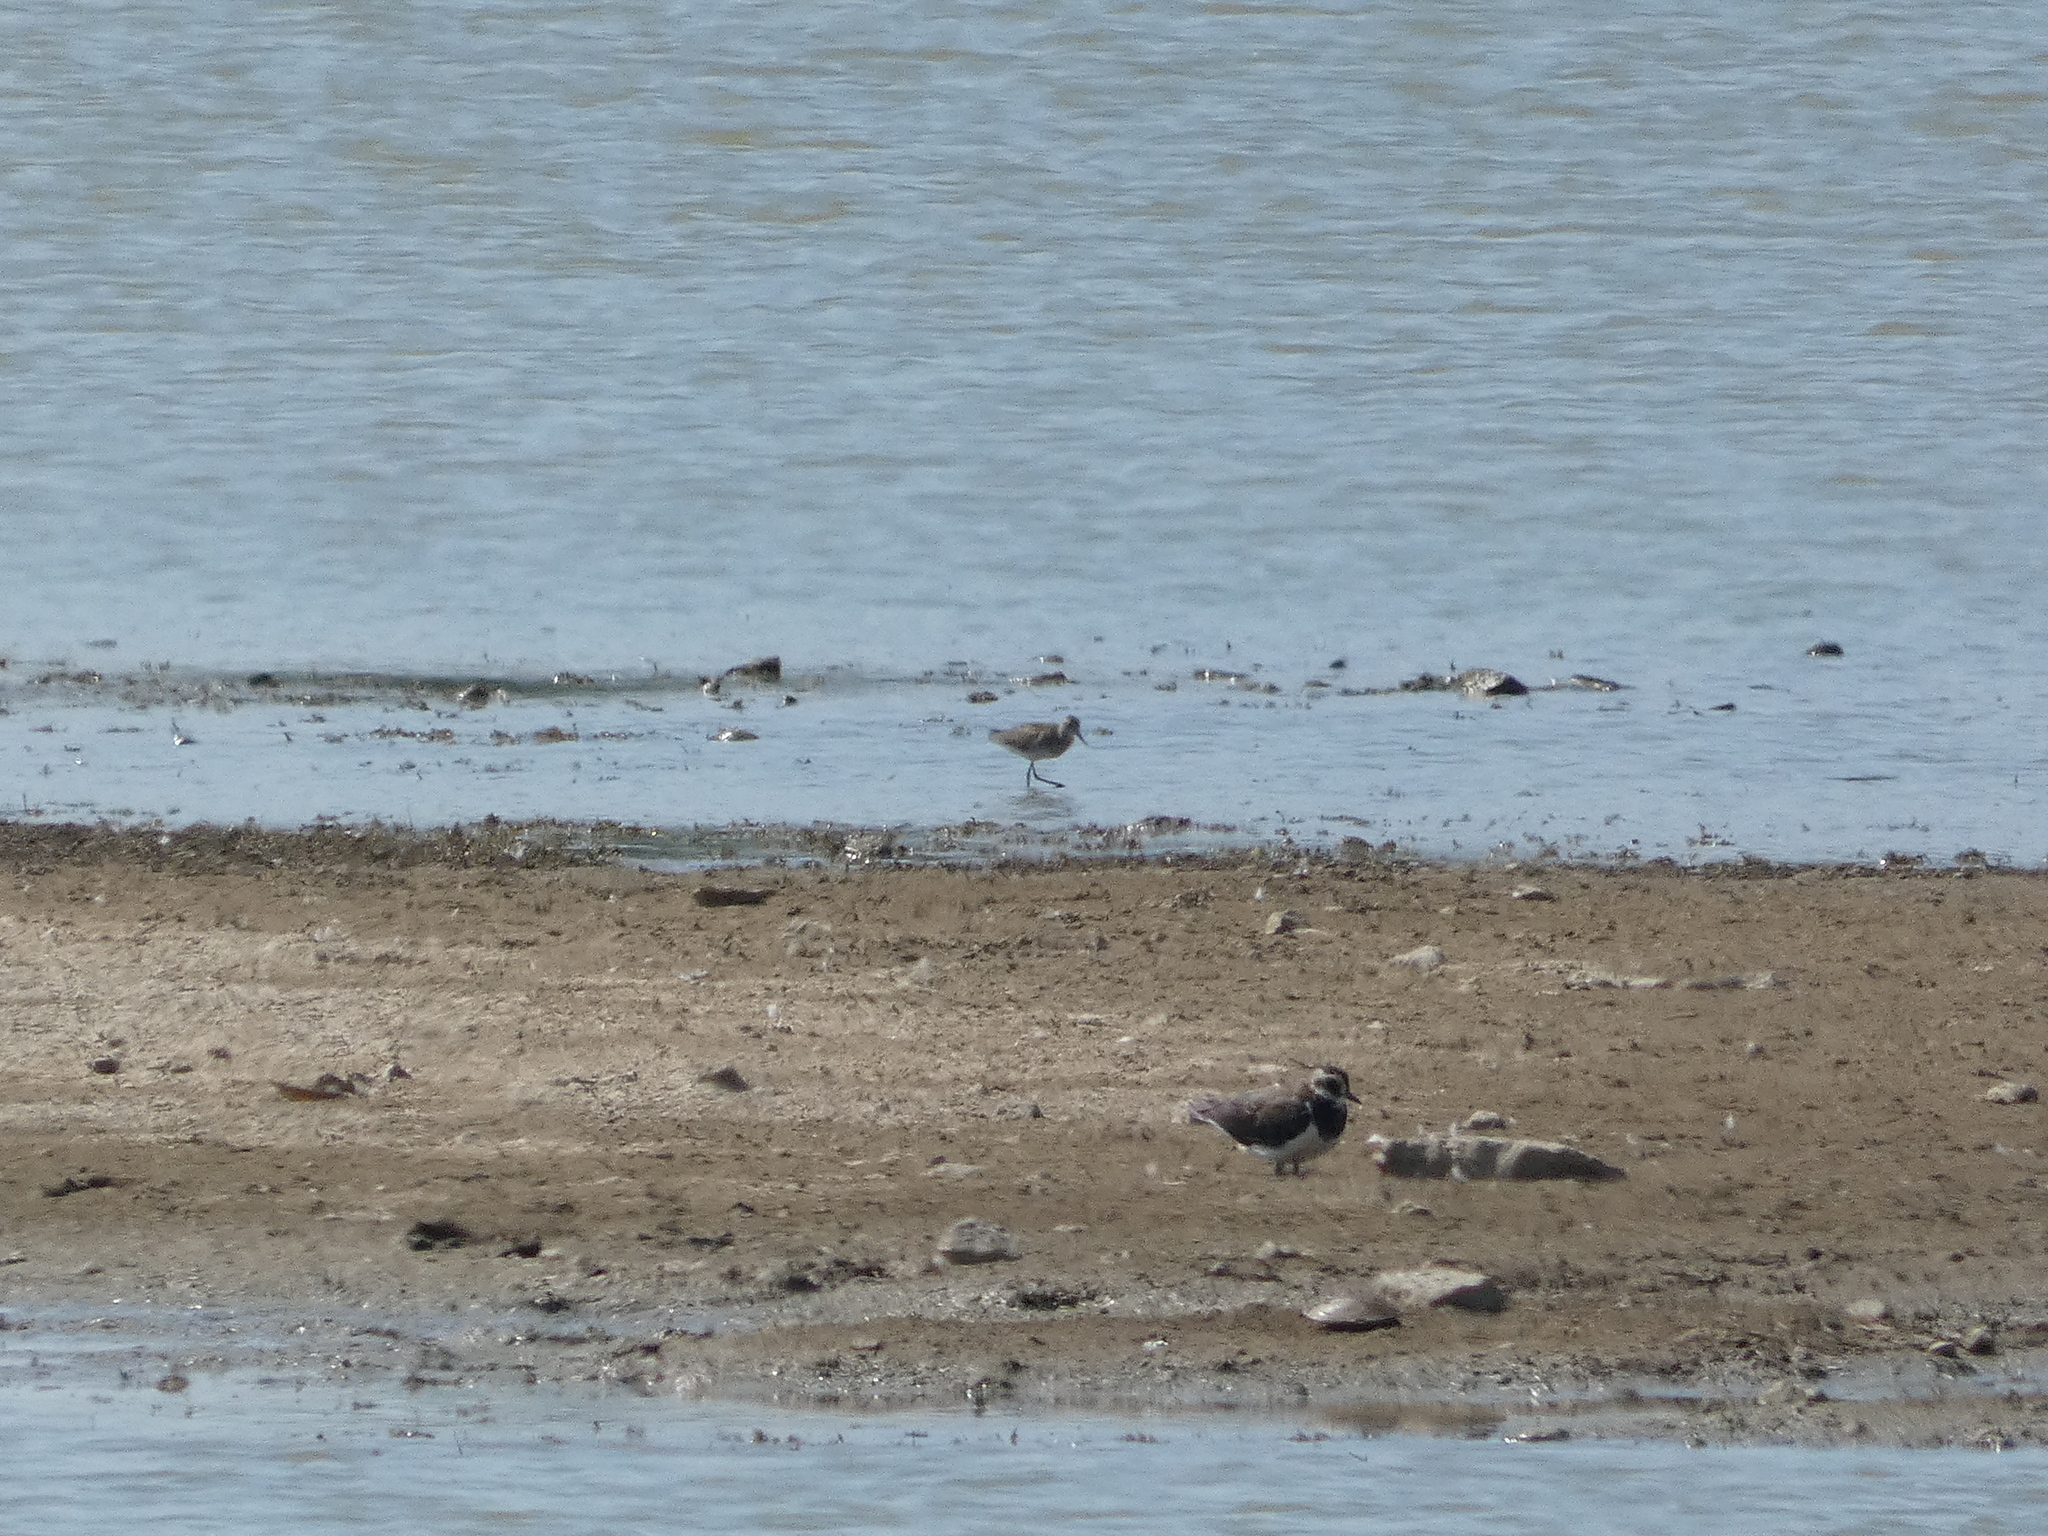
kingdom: Animalia
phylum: Chordata
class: Aves
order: Charadriiformes
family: Charadriidae
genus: Vanellus
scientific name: Vanellus vanellus
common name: Northern lapwing
